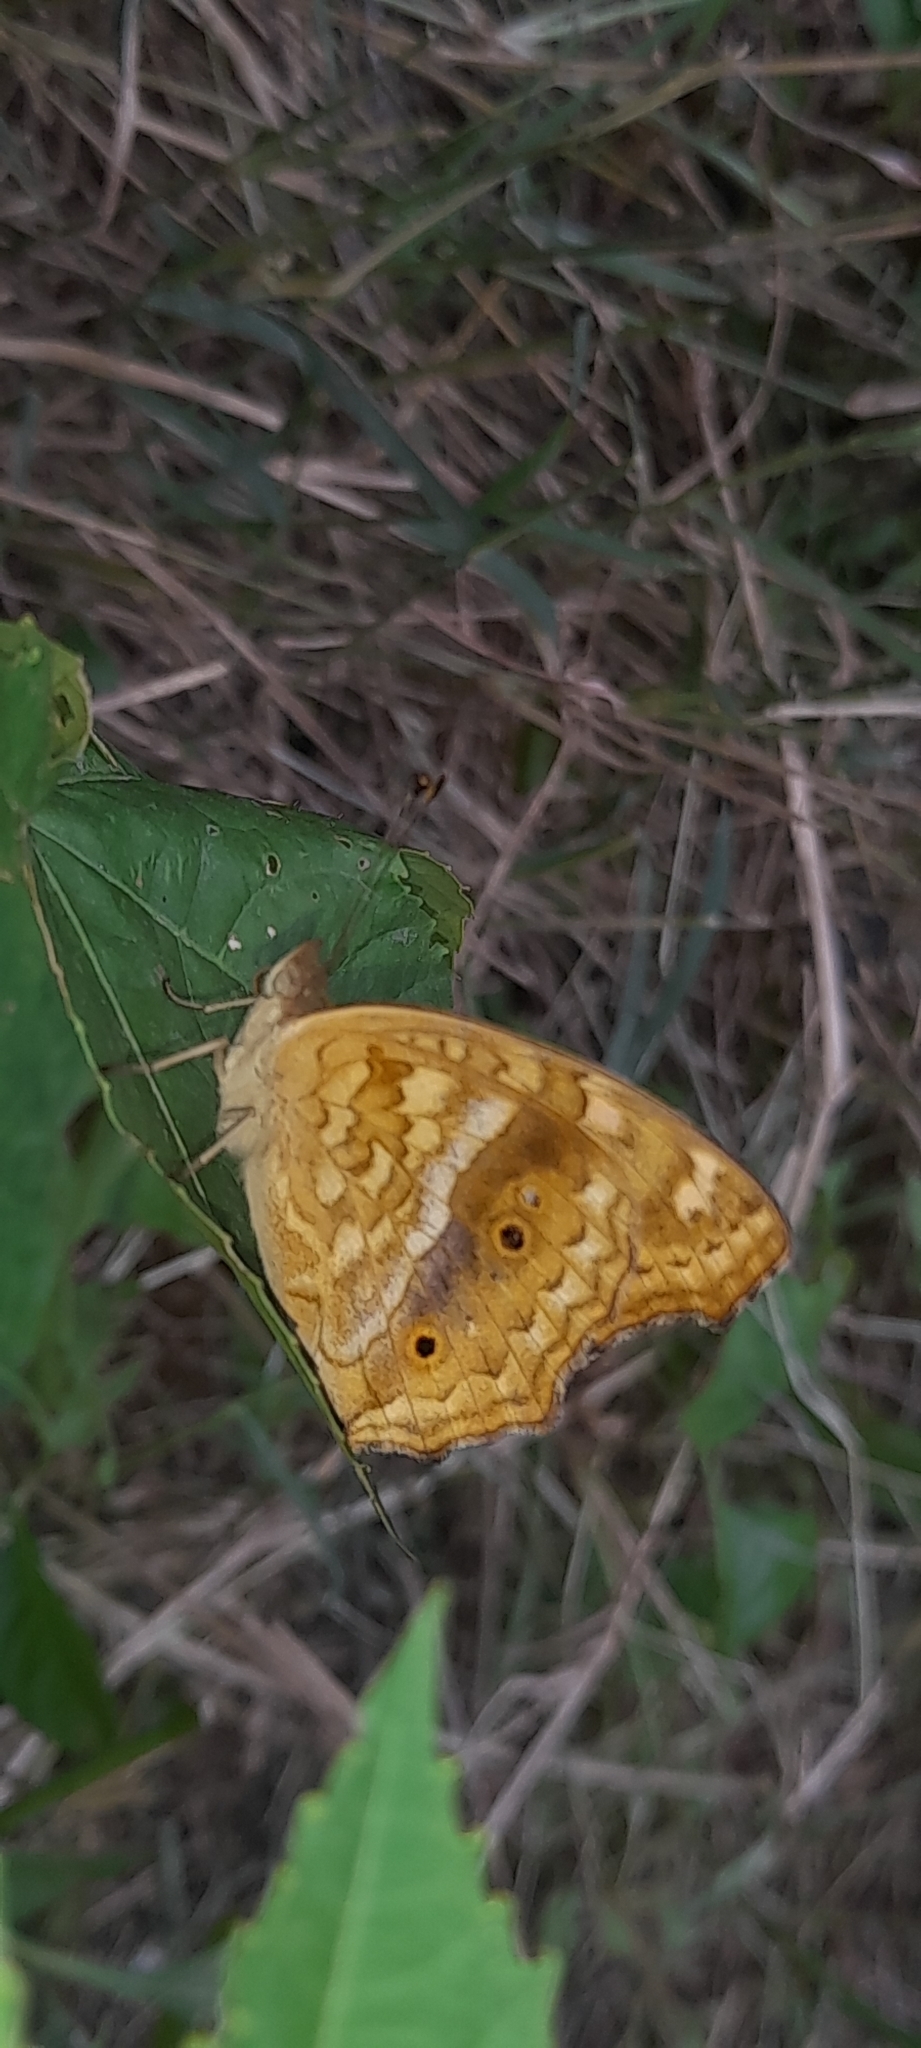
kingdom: Animalia
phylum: Arthropoda
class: Insecta
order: Lepidoptera
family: Nymphalidae
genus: Junonia
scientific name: Junonia lemonias
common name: Lemon pansy
